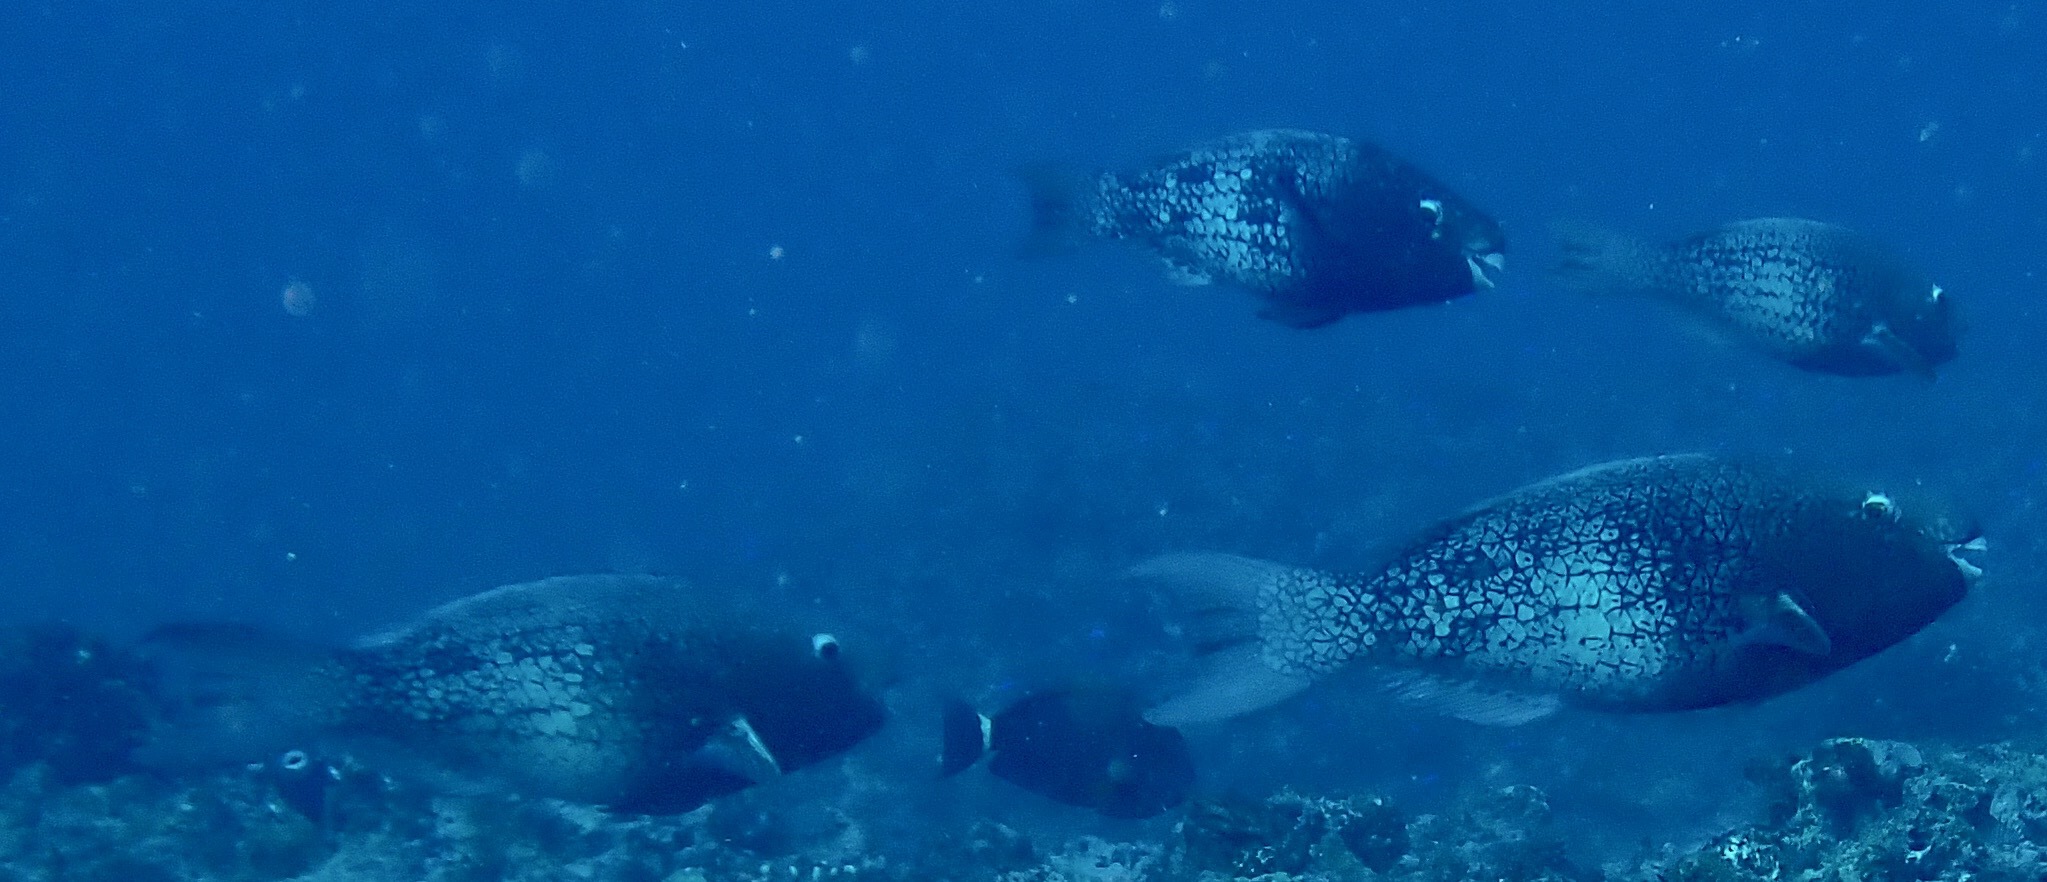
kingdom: Animalia
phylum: Chordata
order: Perciformes
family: Scaridae
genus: Scarus
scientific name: Scarus rubroviolaceus
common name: Ember parrotfish
